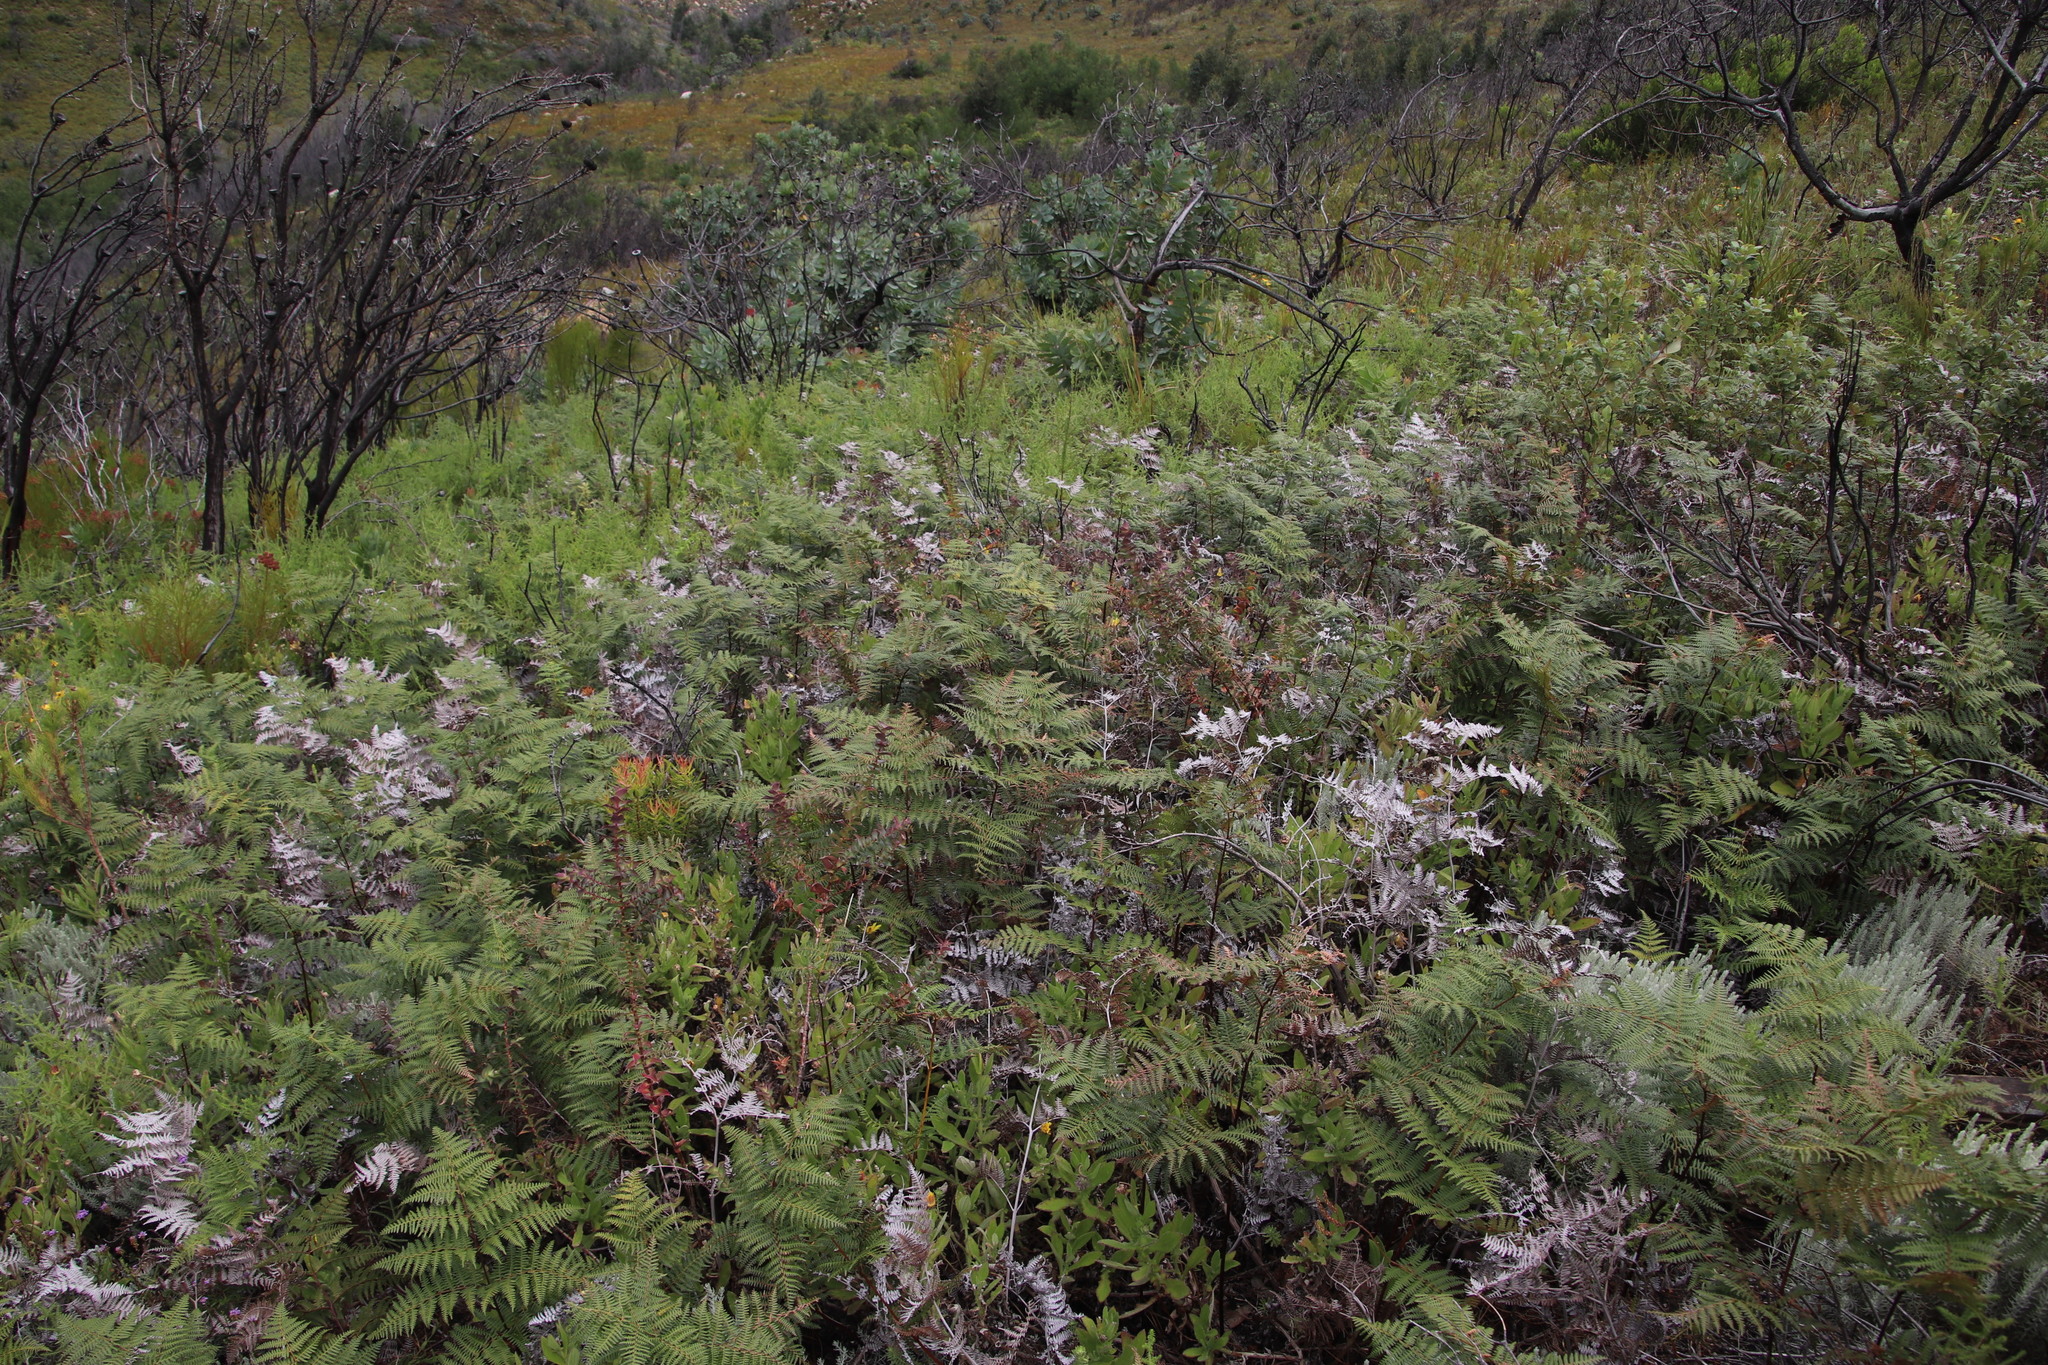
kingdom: Plantae
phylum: Tracheophyta
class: Polypodiopsida
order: Polypodiales
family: Dennstaedtiaceae
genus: Pteridium
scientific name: Pteridium aquilinum
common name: Bracken
